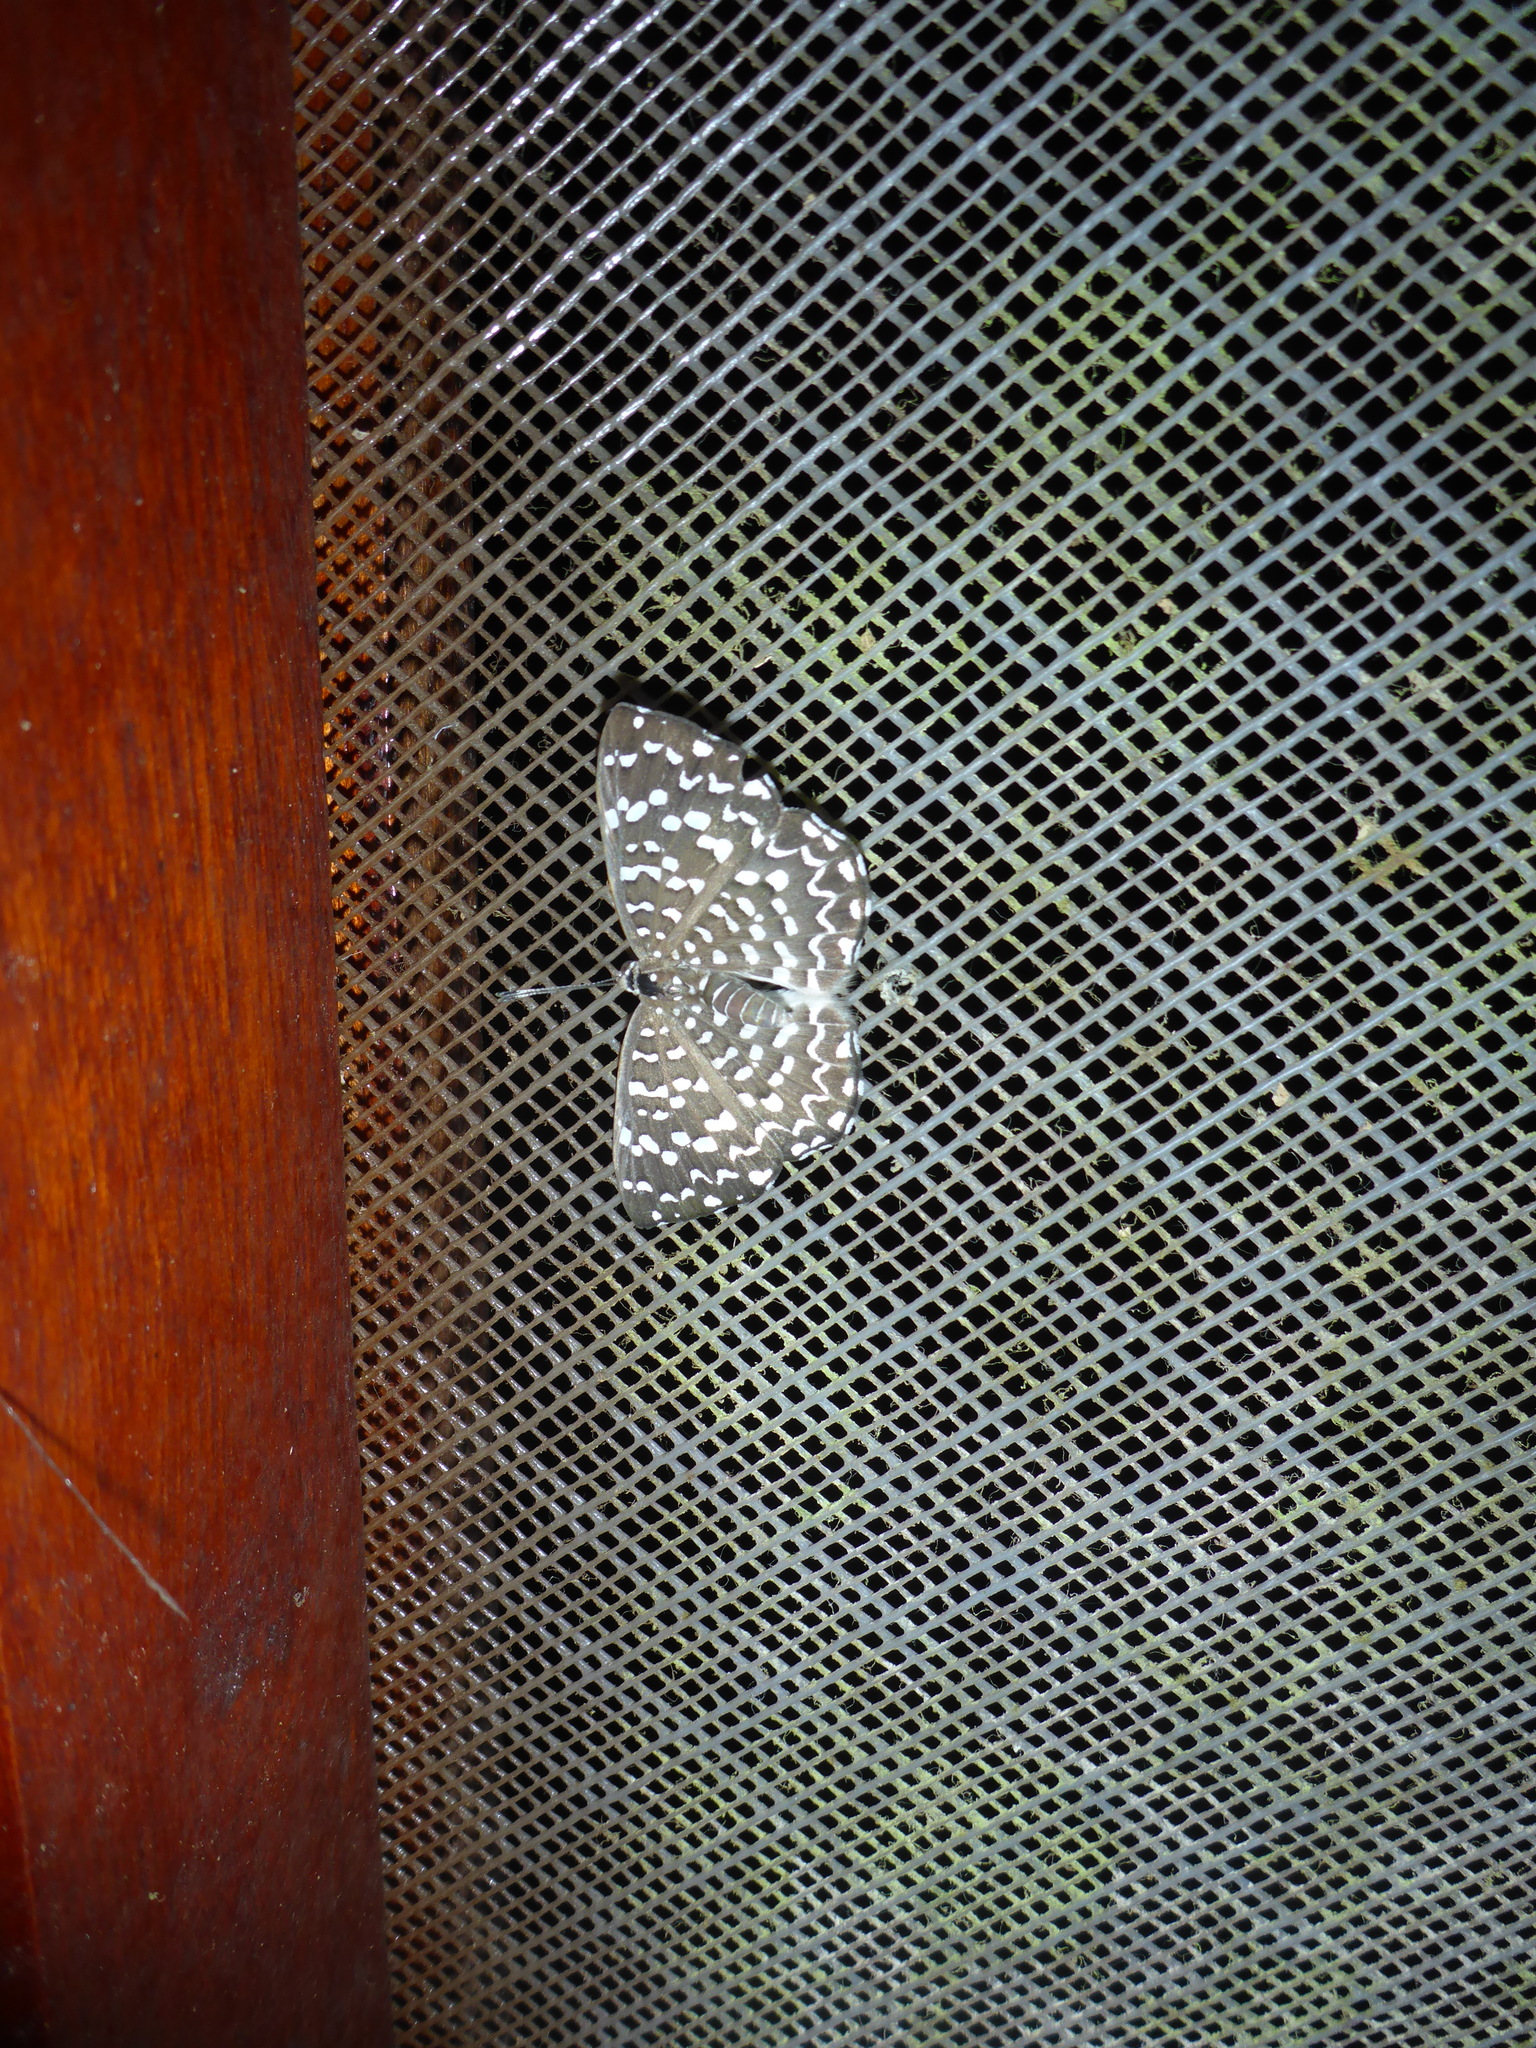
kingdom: Animalia
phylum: Arthropoda
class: Insecta
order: Diptera
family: Ephydridae
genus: Napaea
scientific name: Napaea beltiana
